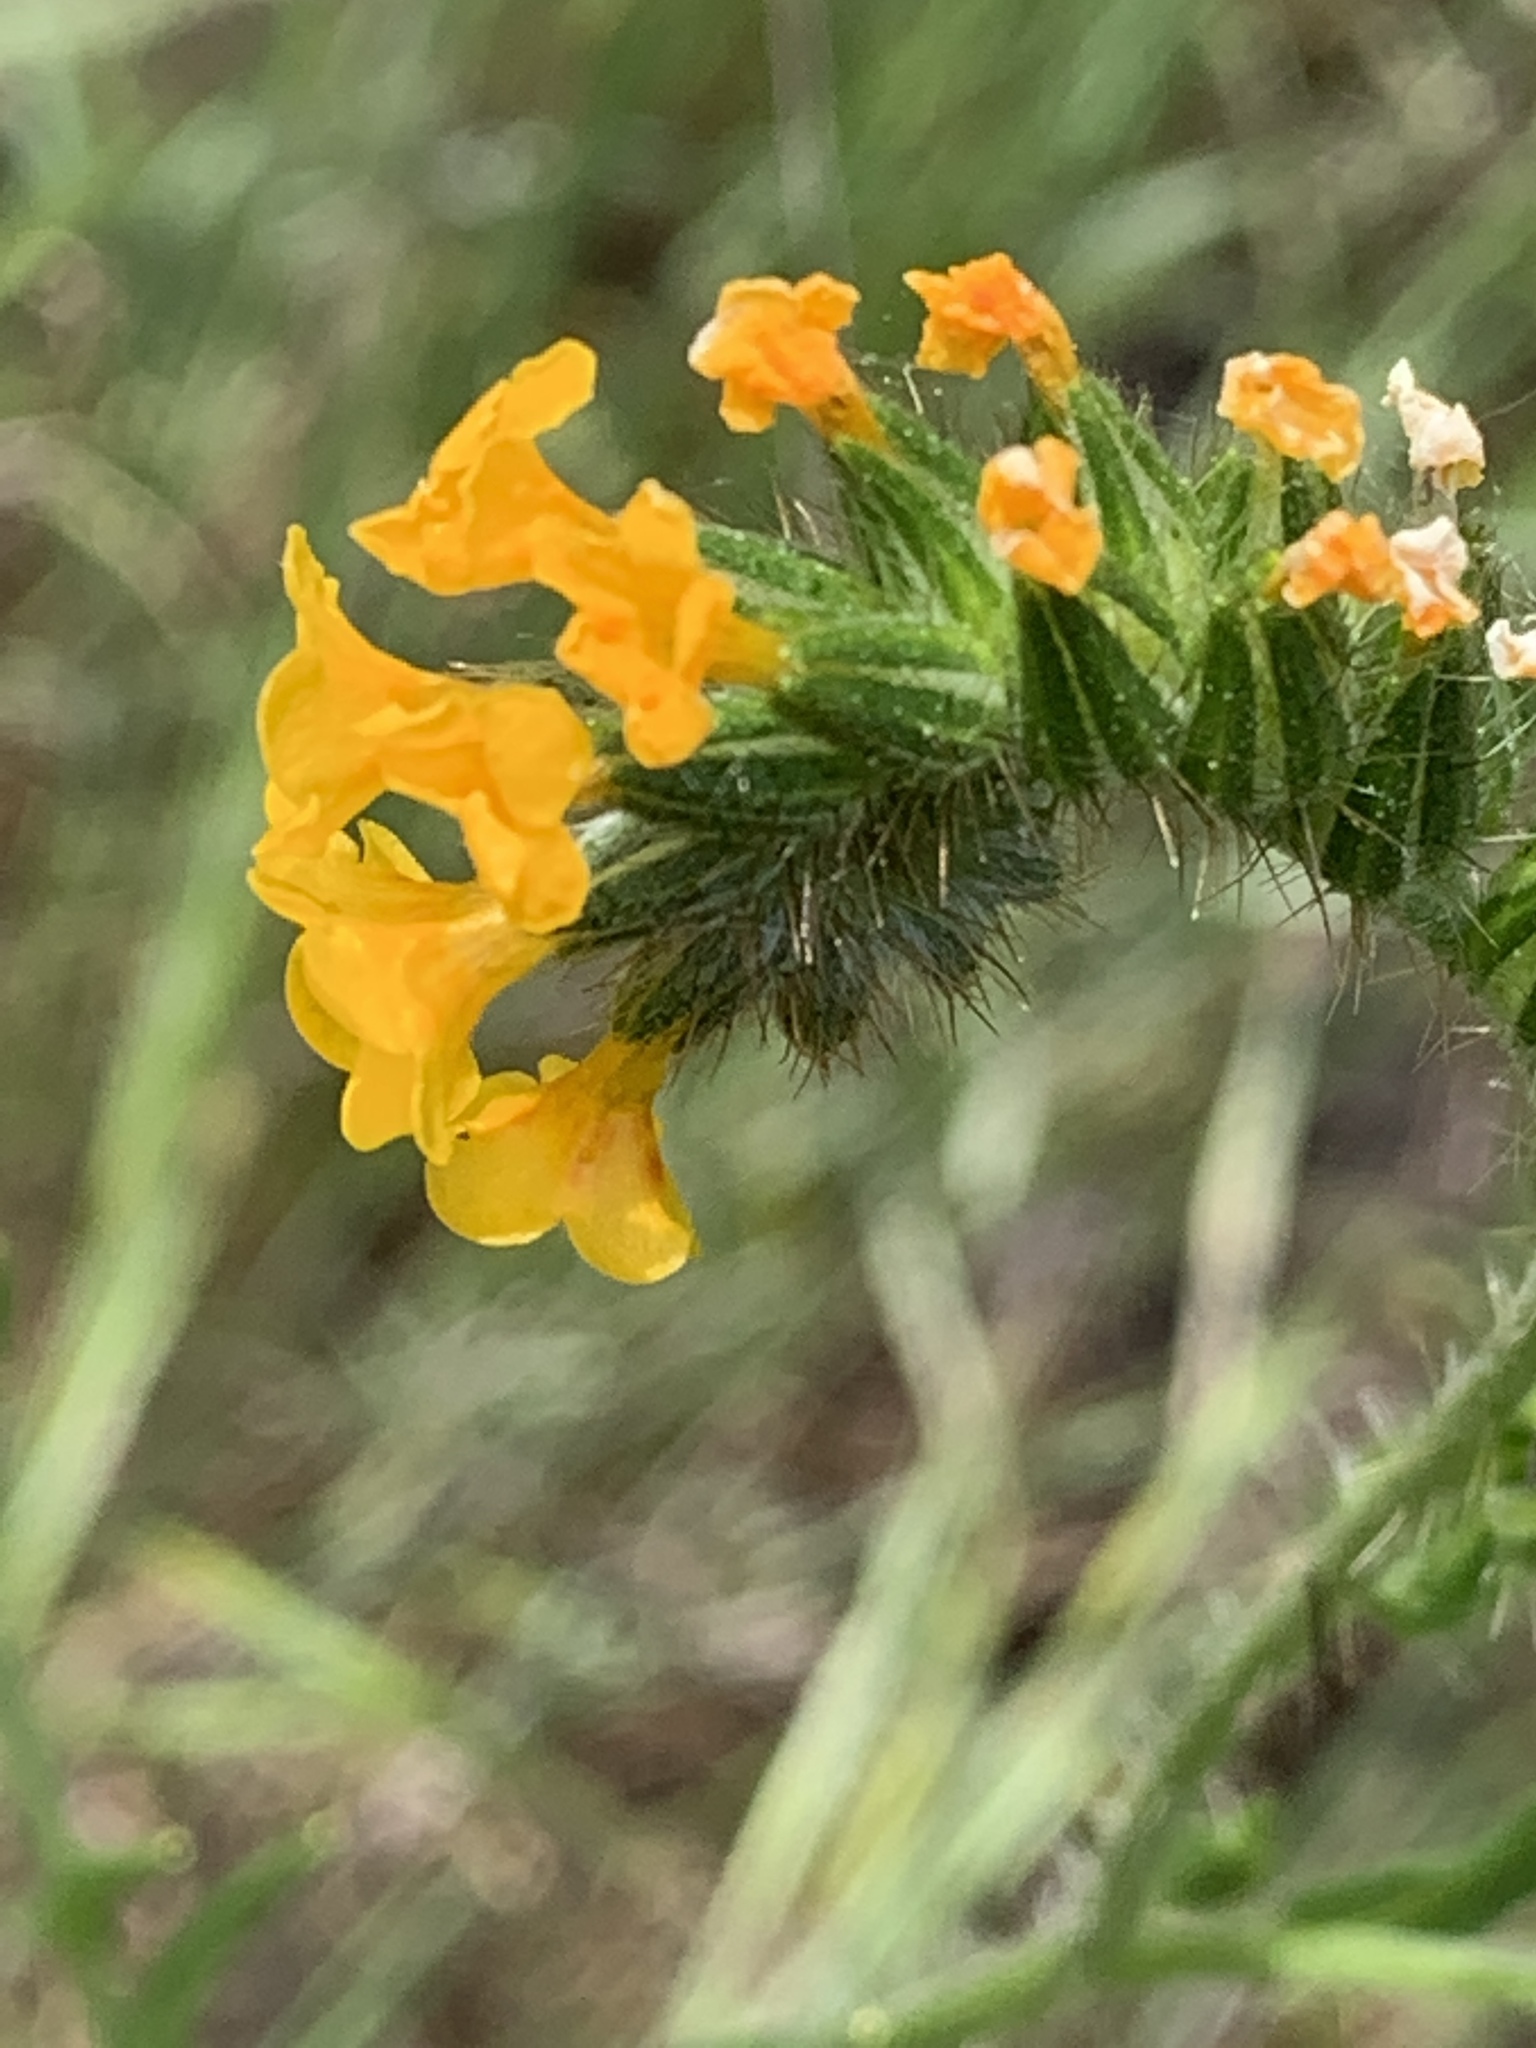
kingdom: Plantae
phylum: Tracheophyta
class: Magnoliopsida
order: Boraginales
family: Boraginaceae
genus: Amsinckia
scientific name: Amsinckia menziesii
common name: Menzies' fiddleneck
